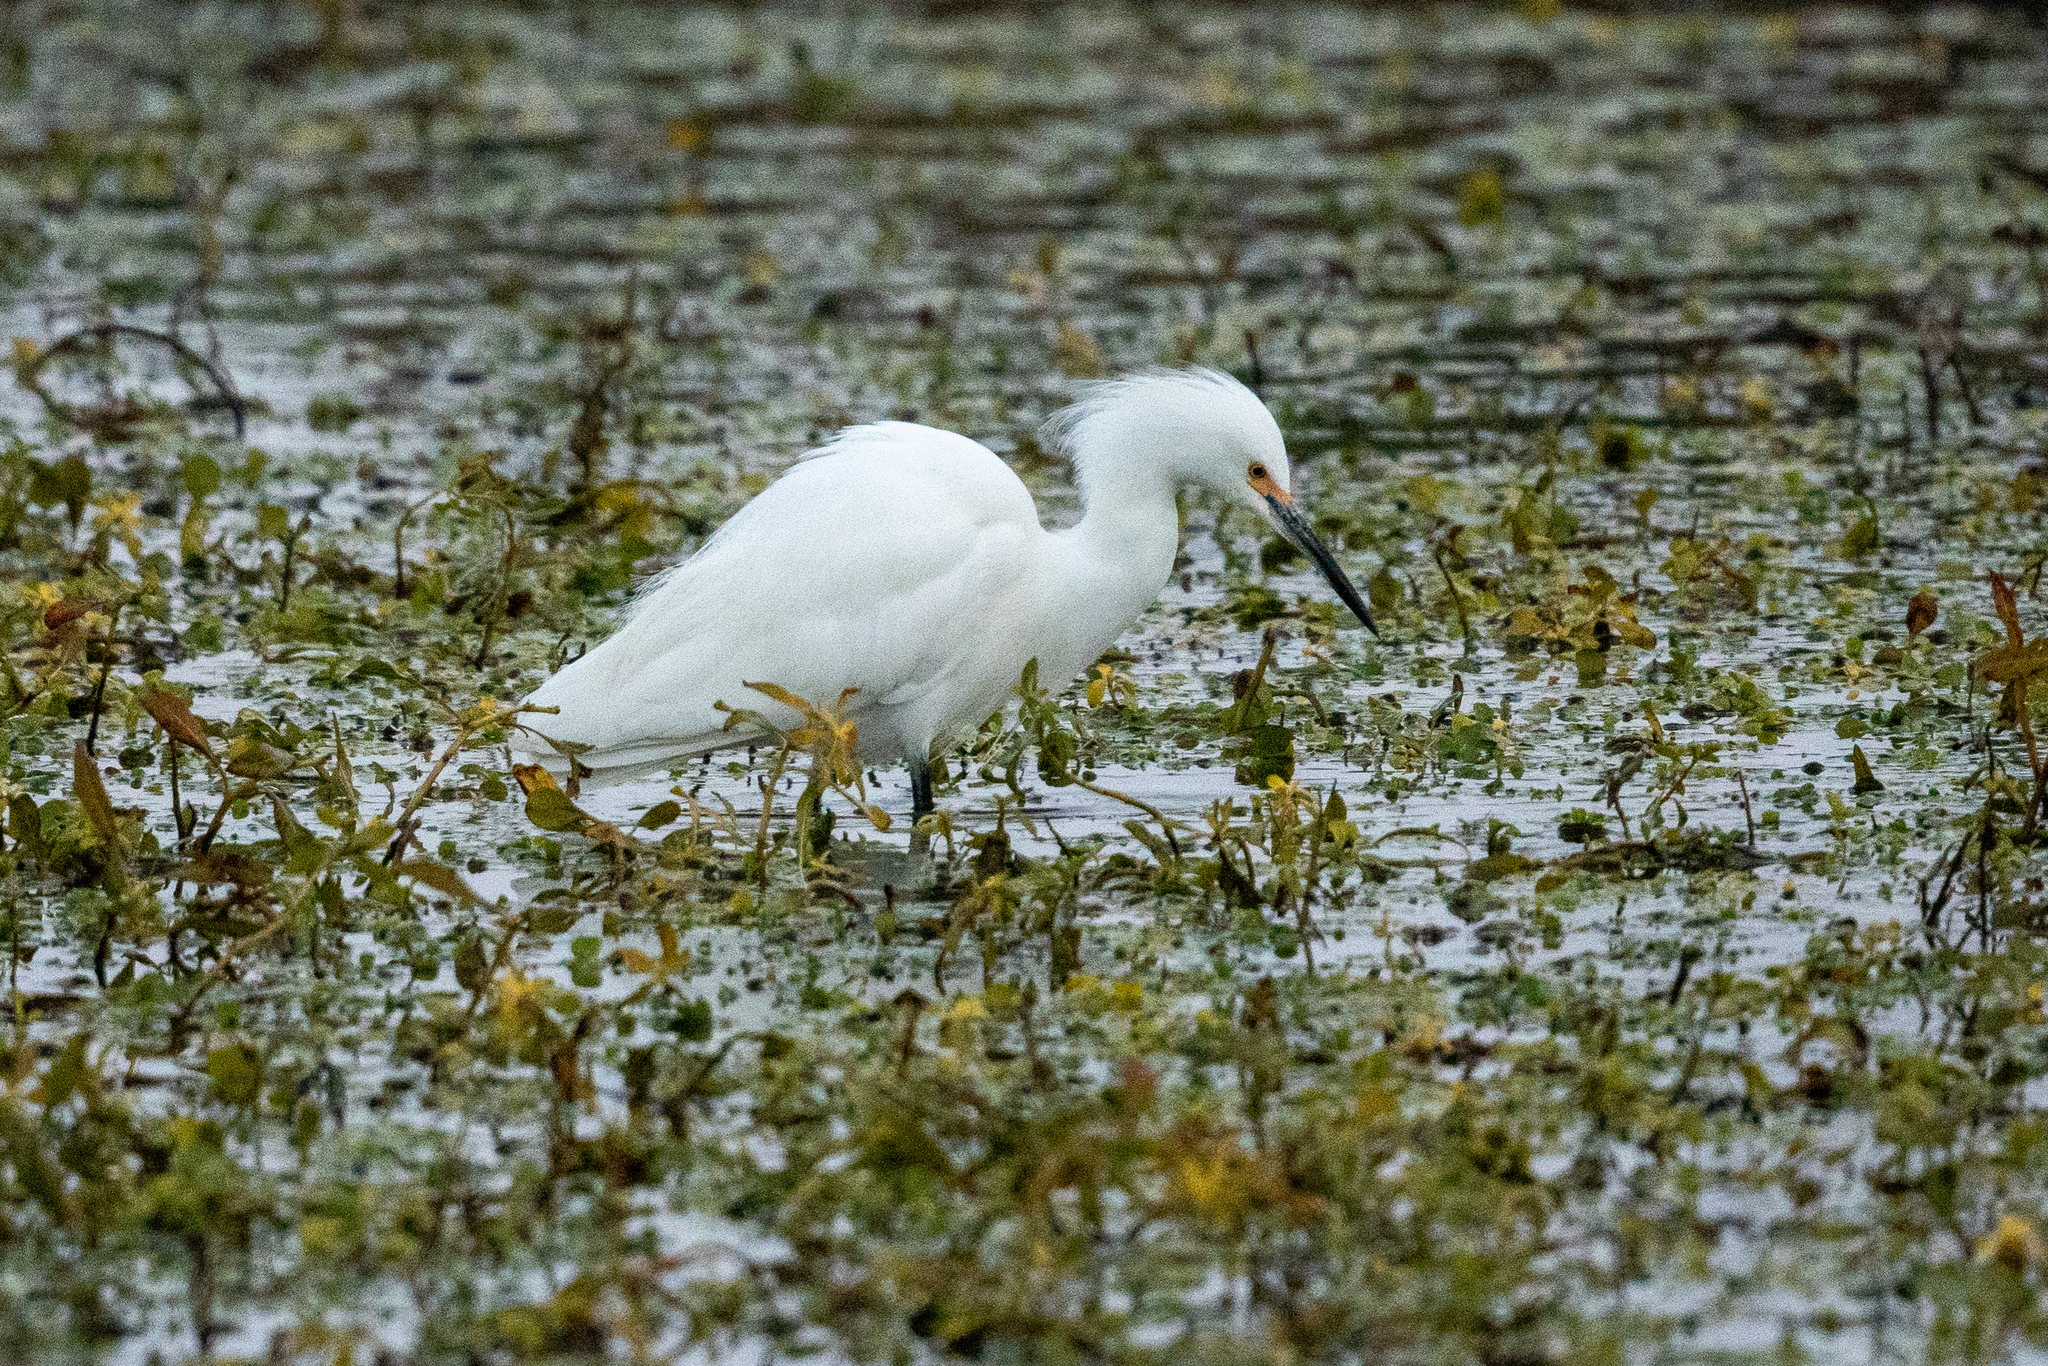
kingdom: Animalia
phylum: Chordata
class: Aves
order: Pelecaniformes
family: Ardeidae
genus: Egretta
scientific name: Egretta thula
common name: Snowy egret
